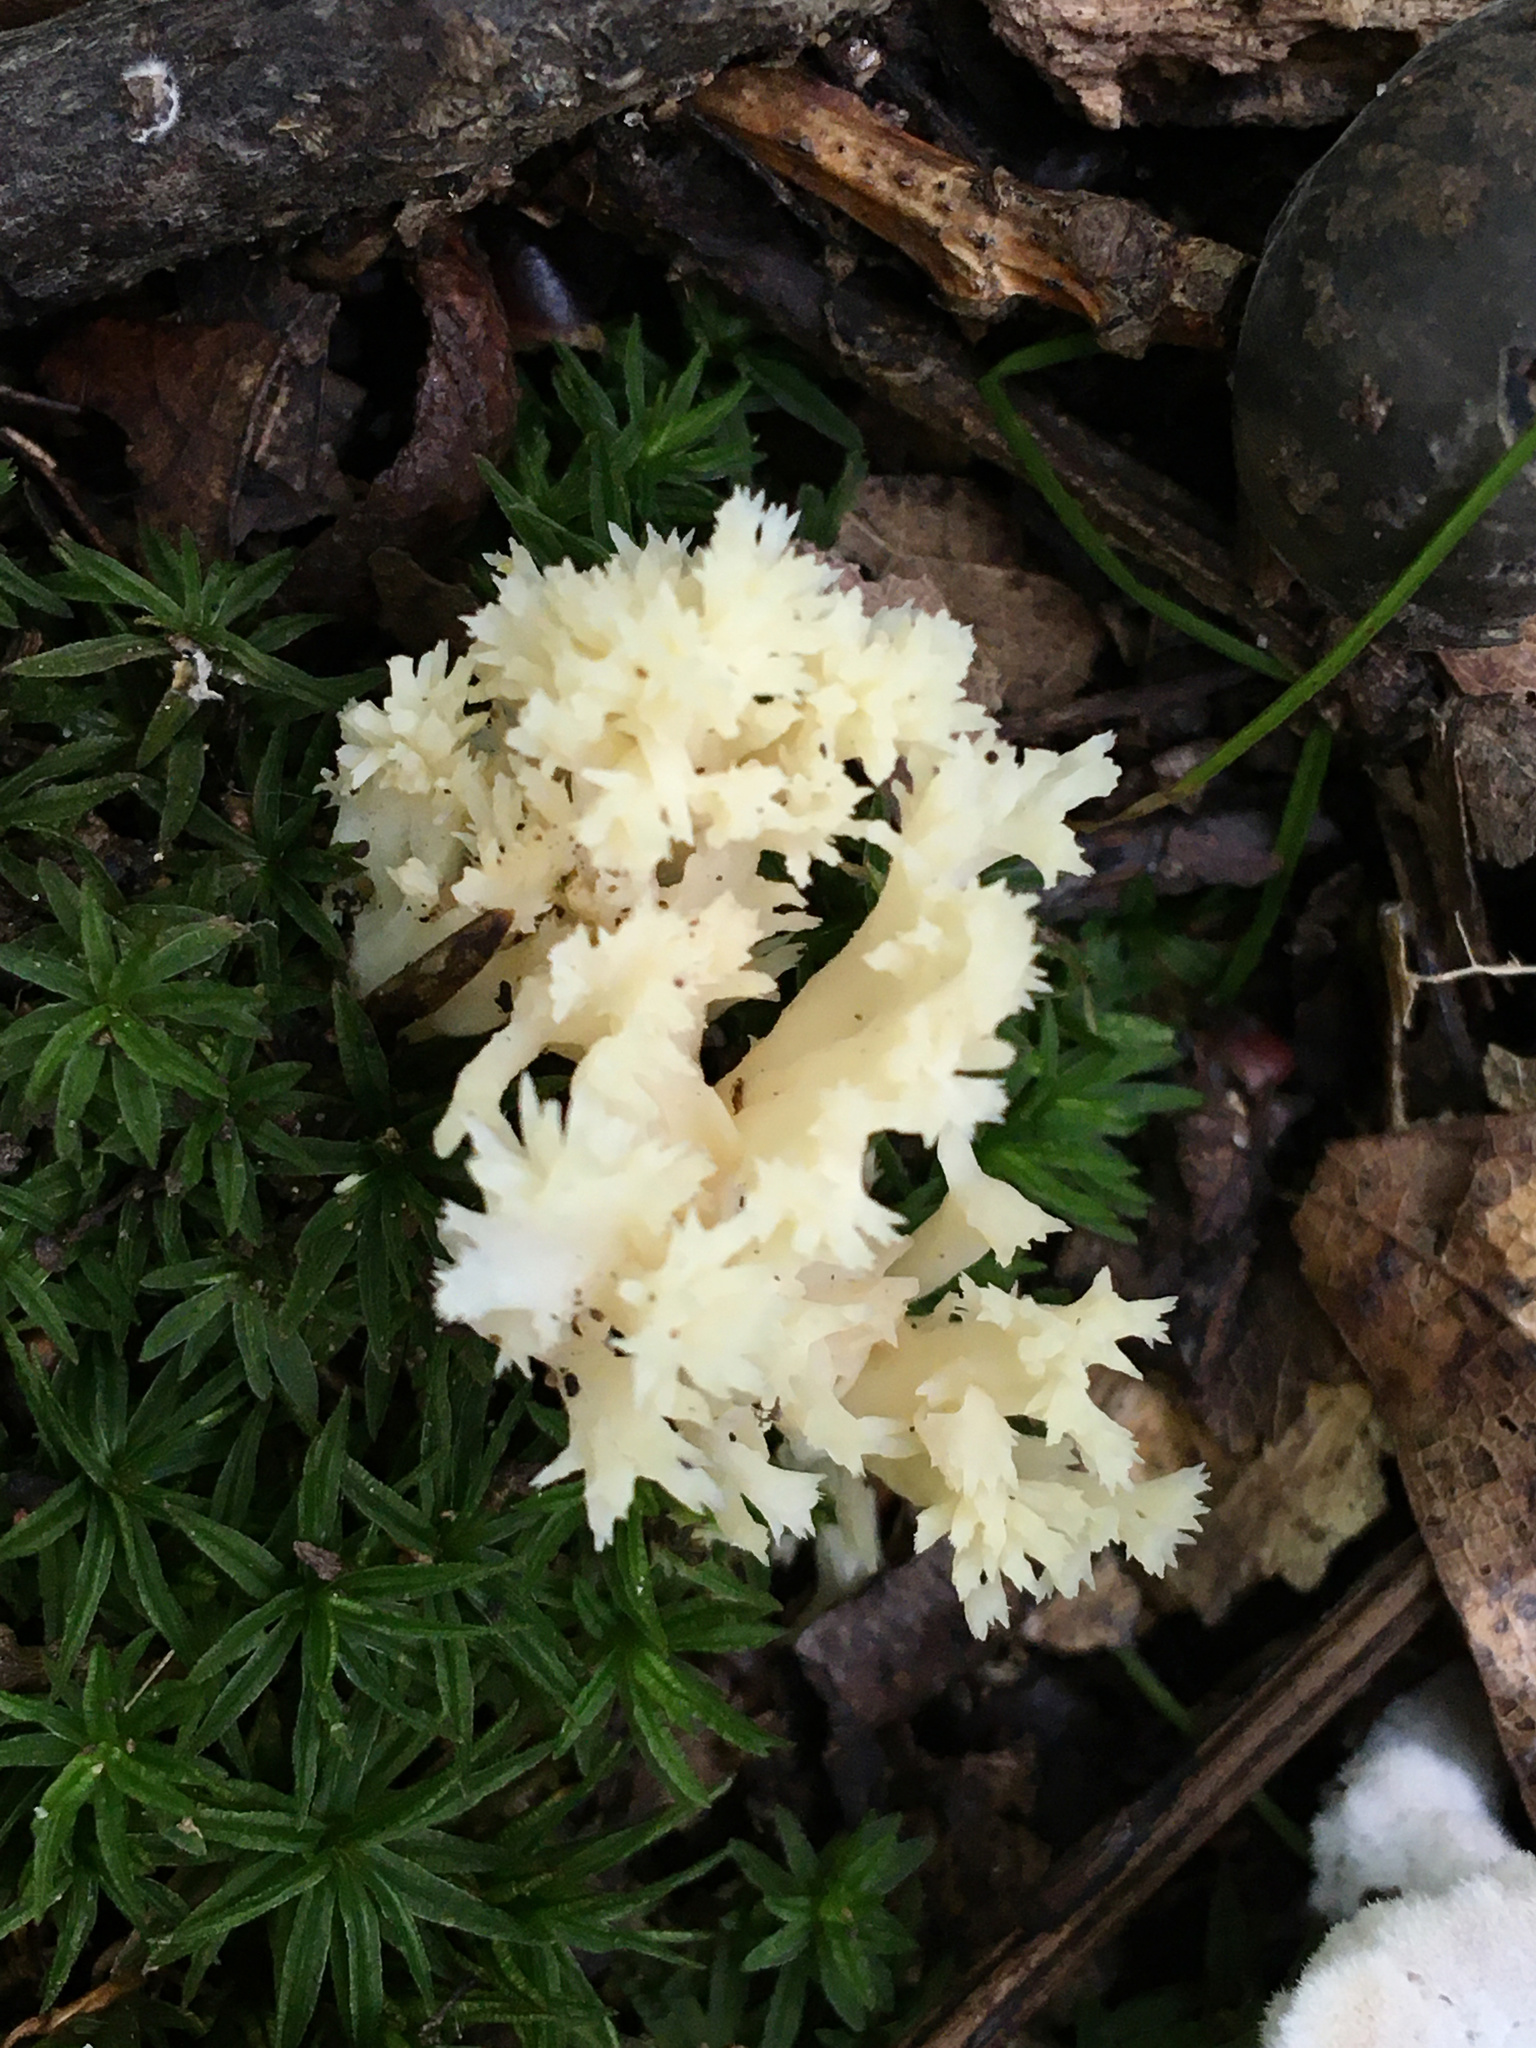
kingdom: Fungi
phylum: Basidiomycota
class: Agaricomycetes
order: Cantharellales
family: Hydnaceae
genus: Clavulina
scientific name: Clavulina coralloides
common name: Crested coral
